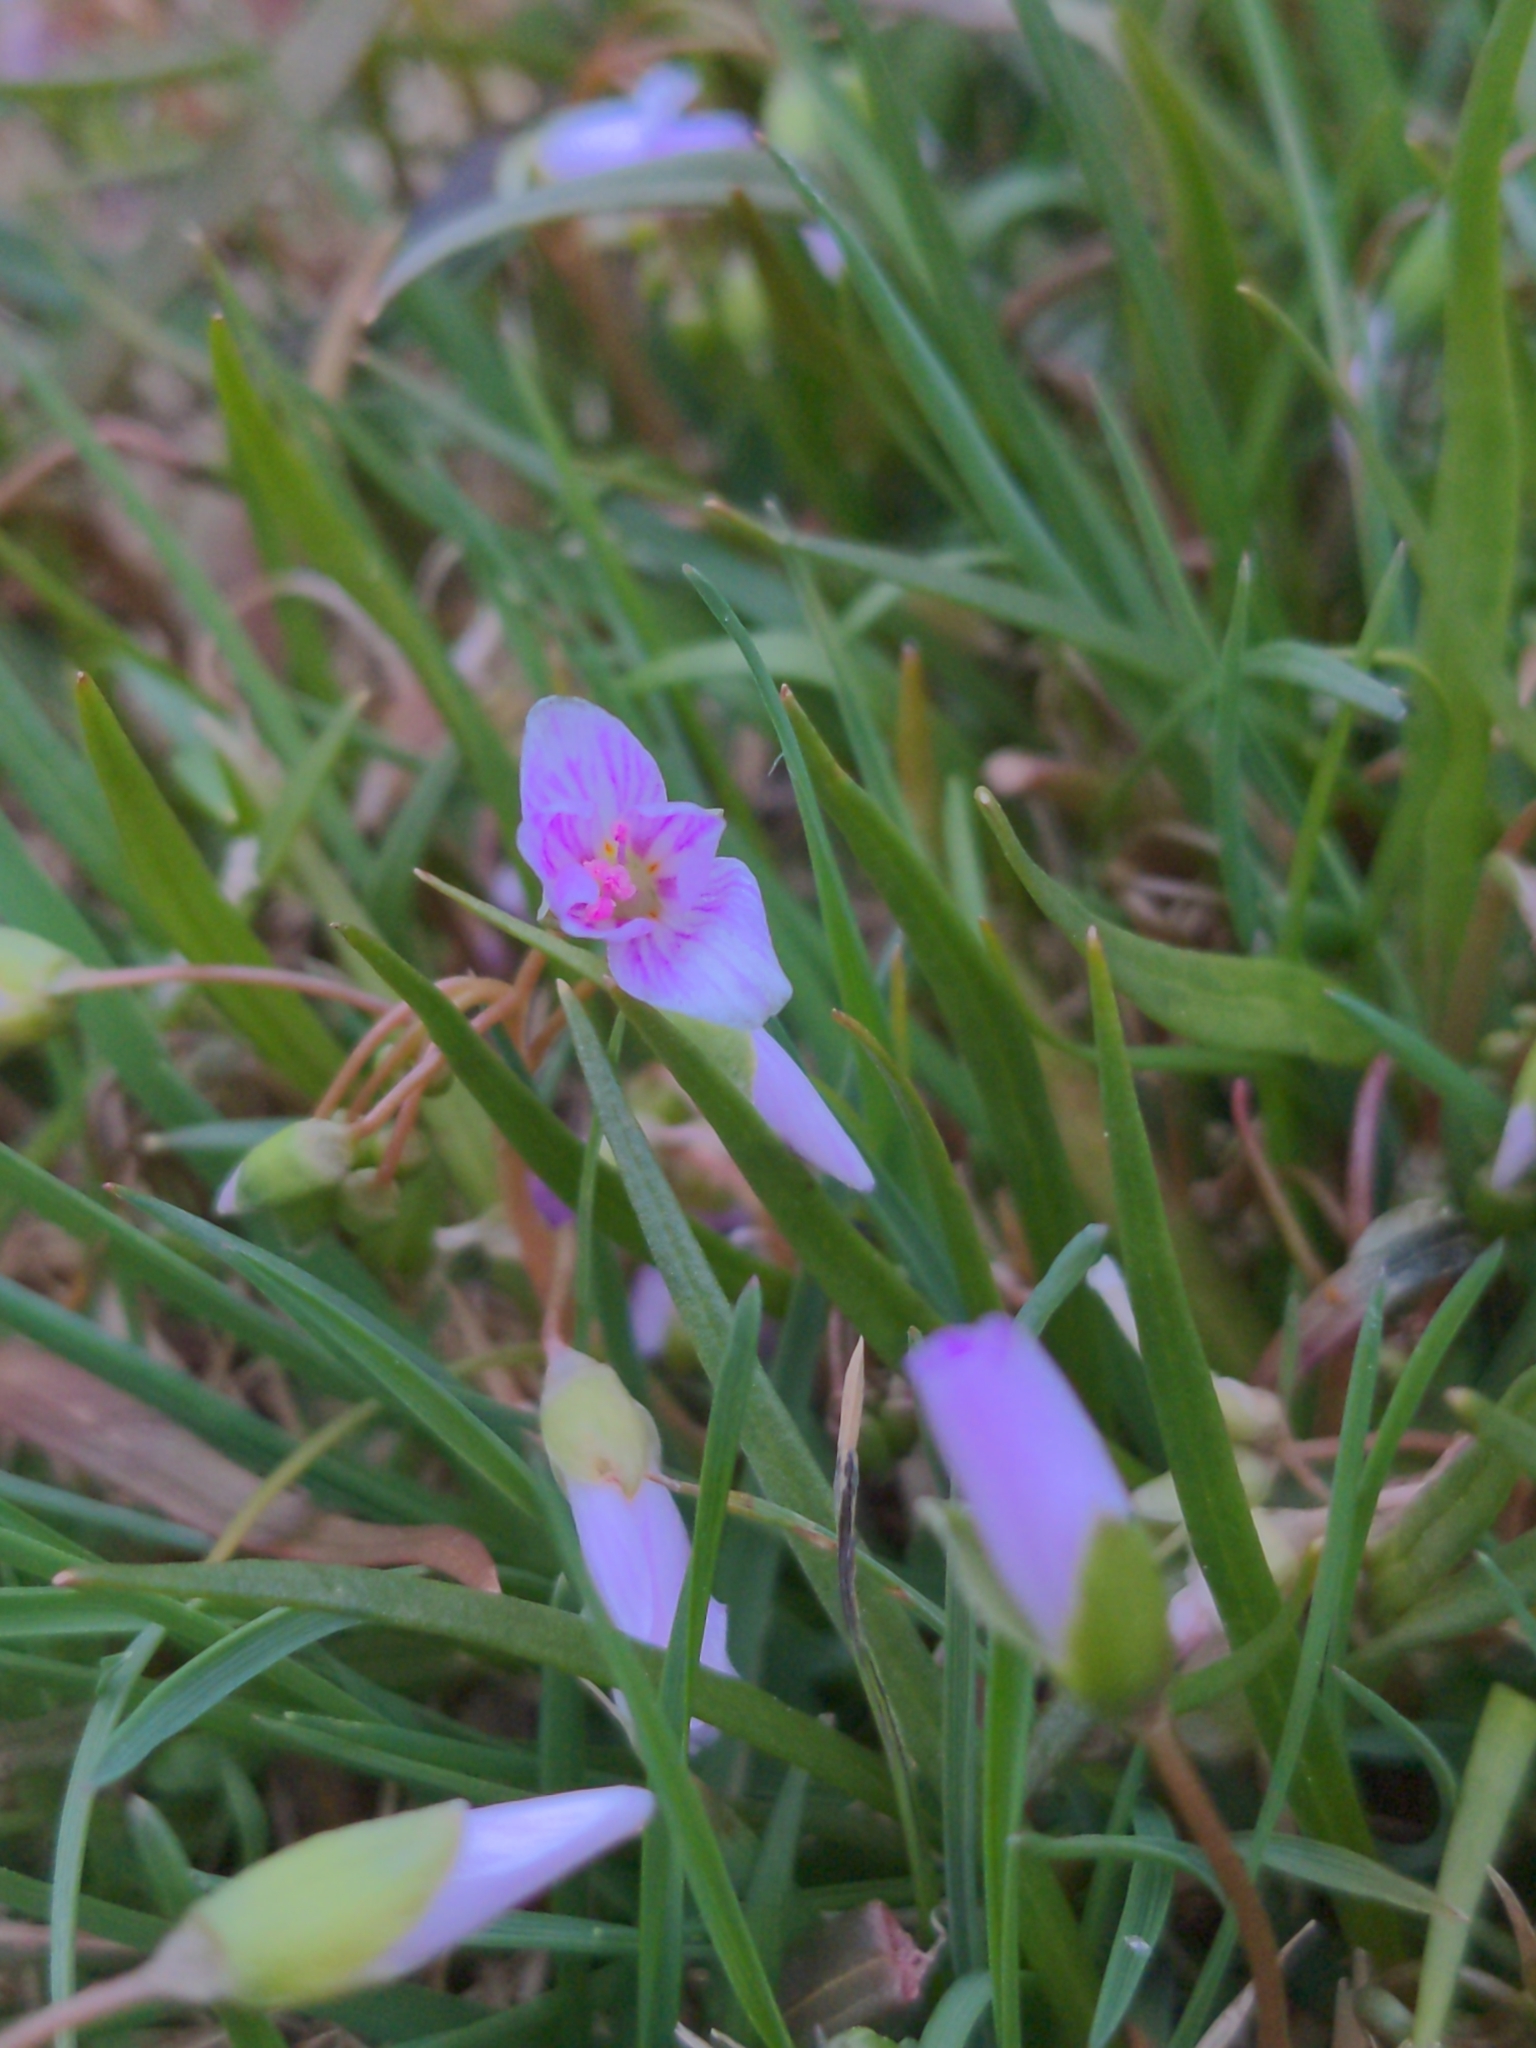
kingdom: Plantae
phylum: Tracheophyta
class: Magnoliopsida
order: Caryophyllales
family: Montiaceae
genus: Claytonia
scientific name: Claytonia virginica
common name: Virginia springbeauty
